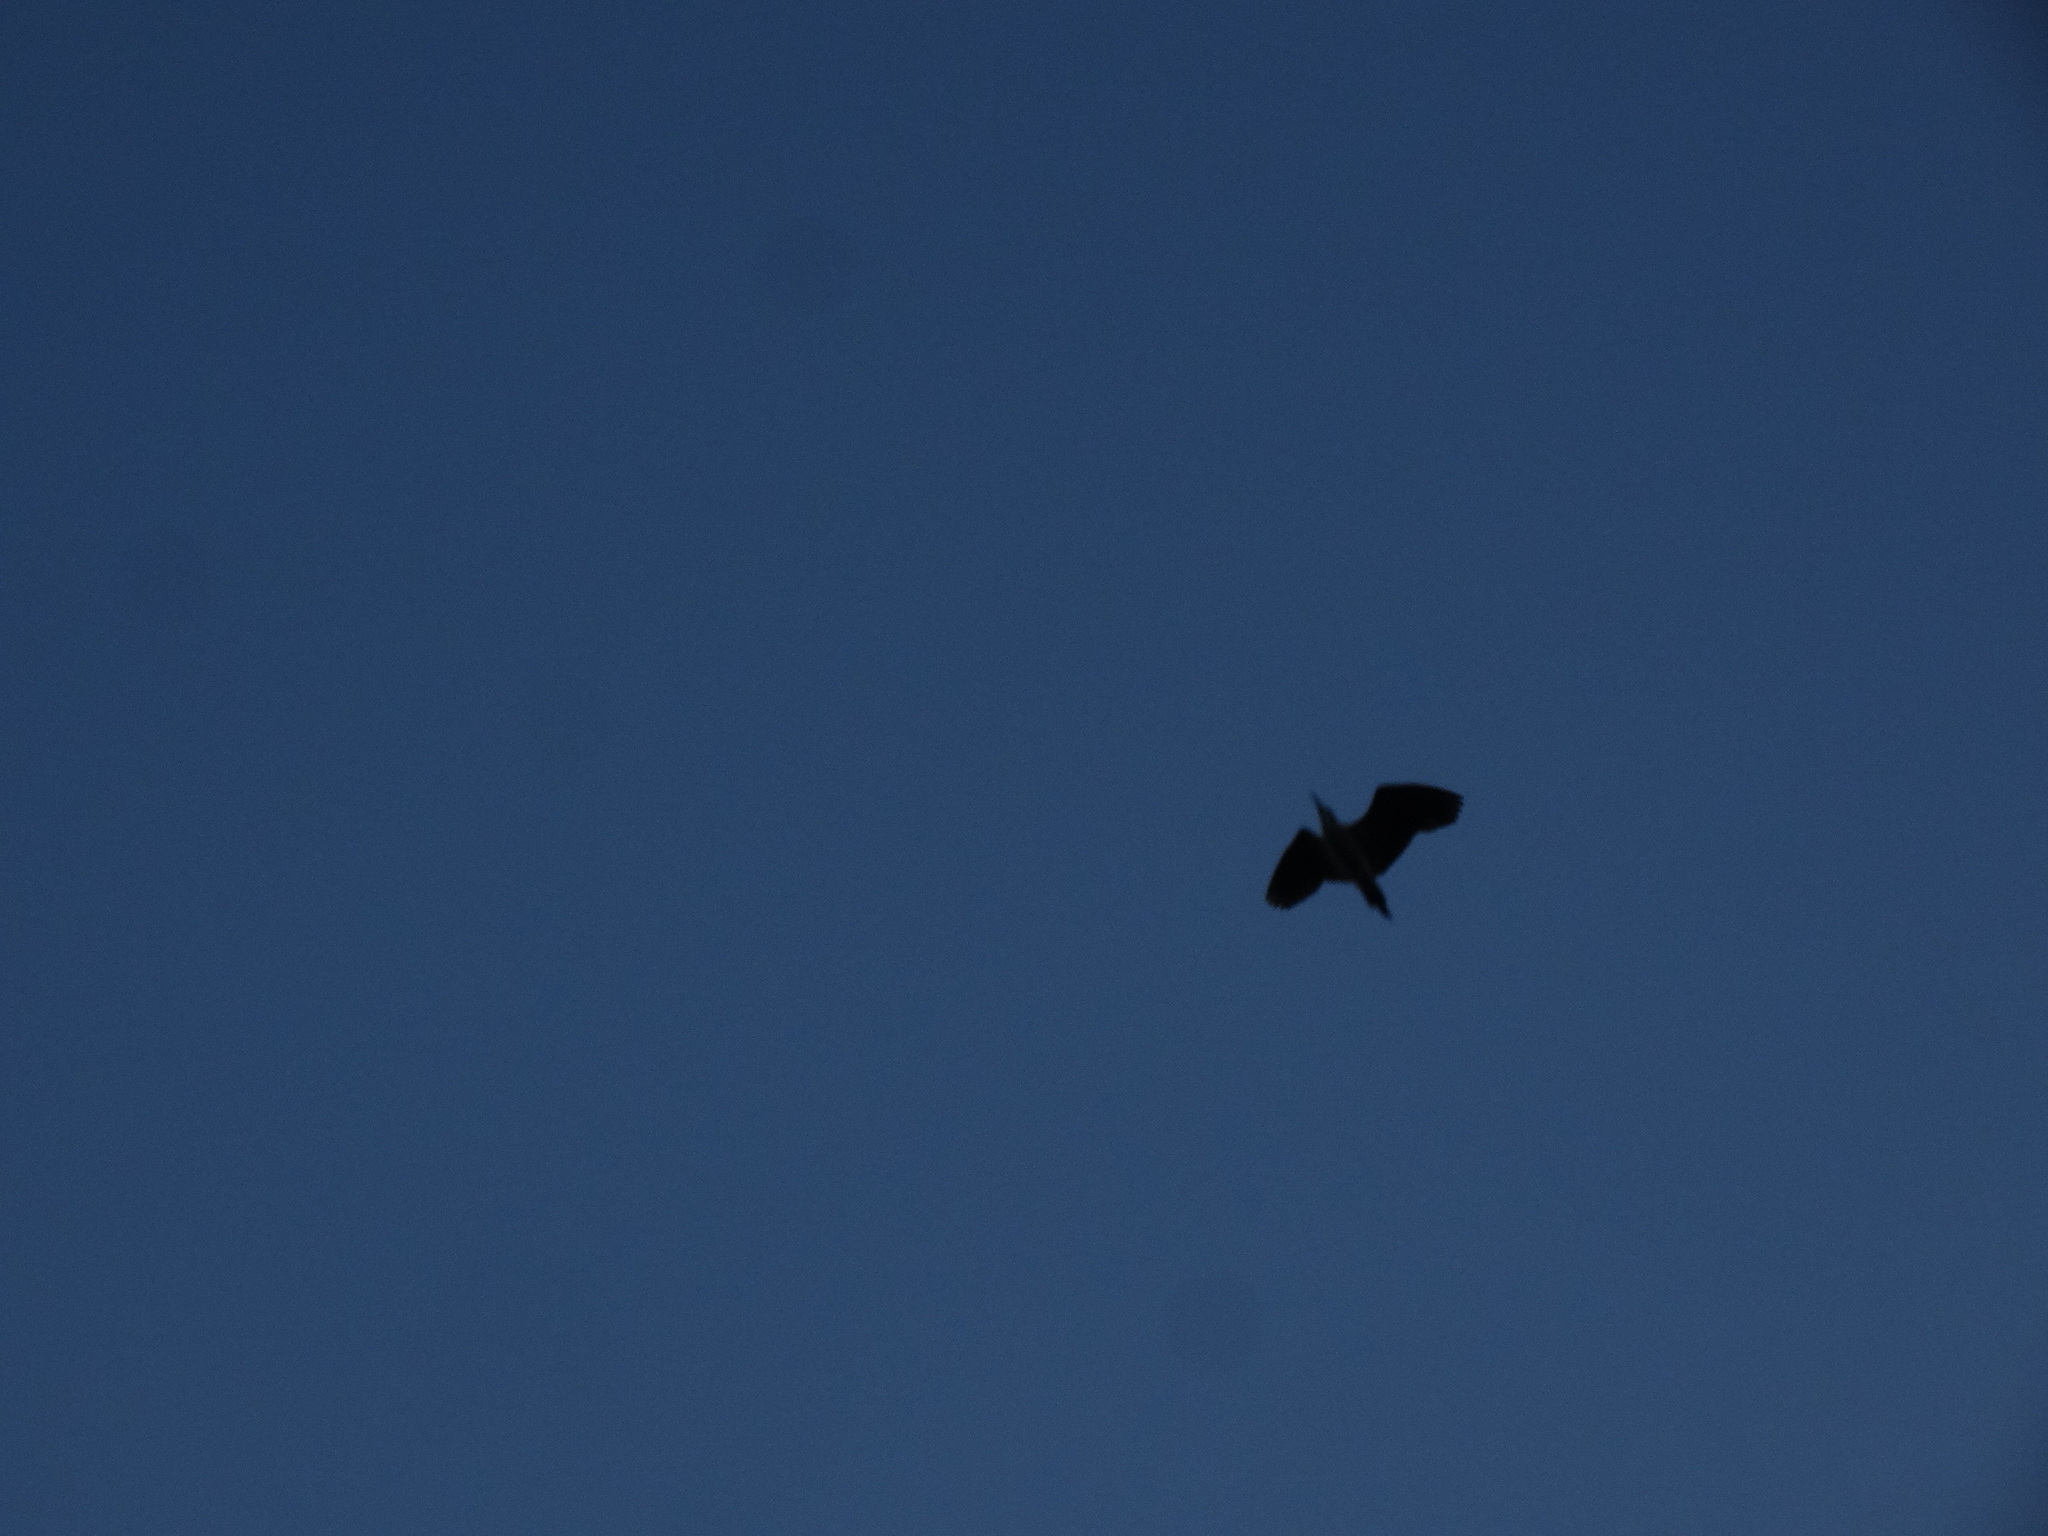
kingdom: Animalia
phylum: Chordata
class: Aves
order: Pelecaniformes
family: Ardeidae
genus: Nycticorax
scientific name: Nycticorax nycticorax
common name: Black-crowned night heron
